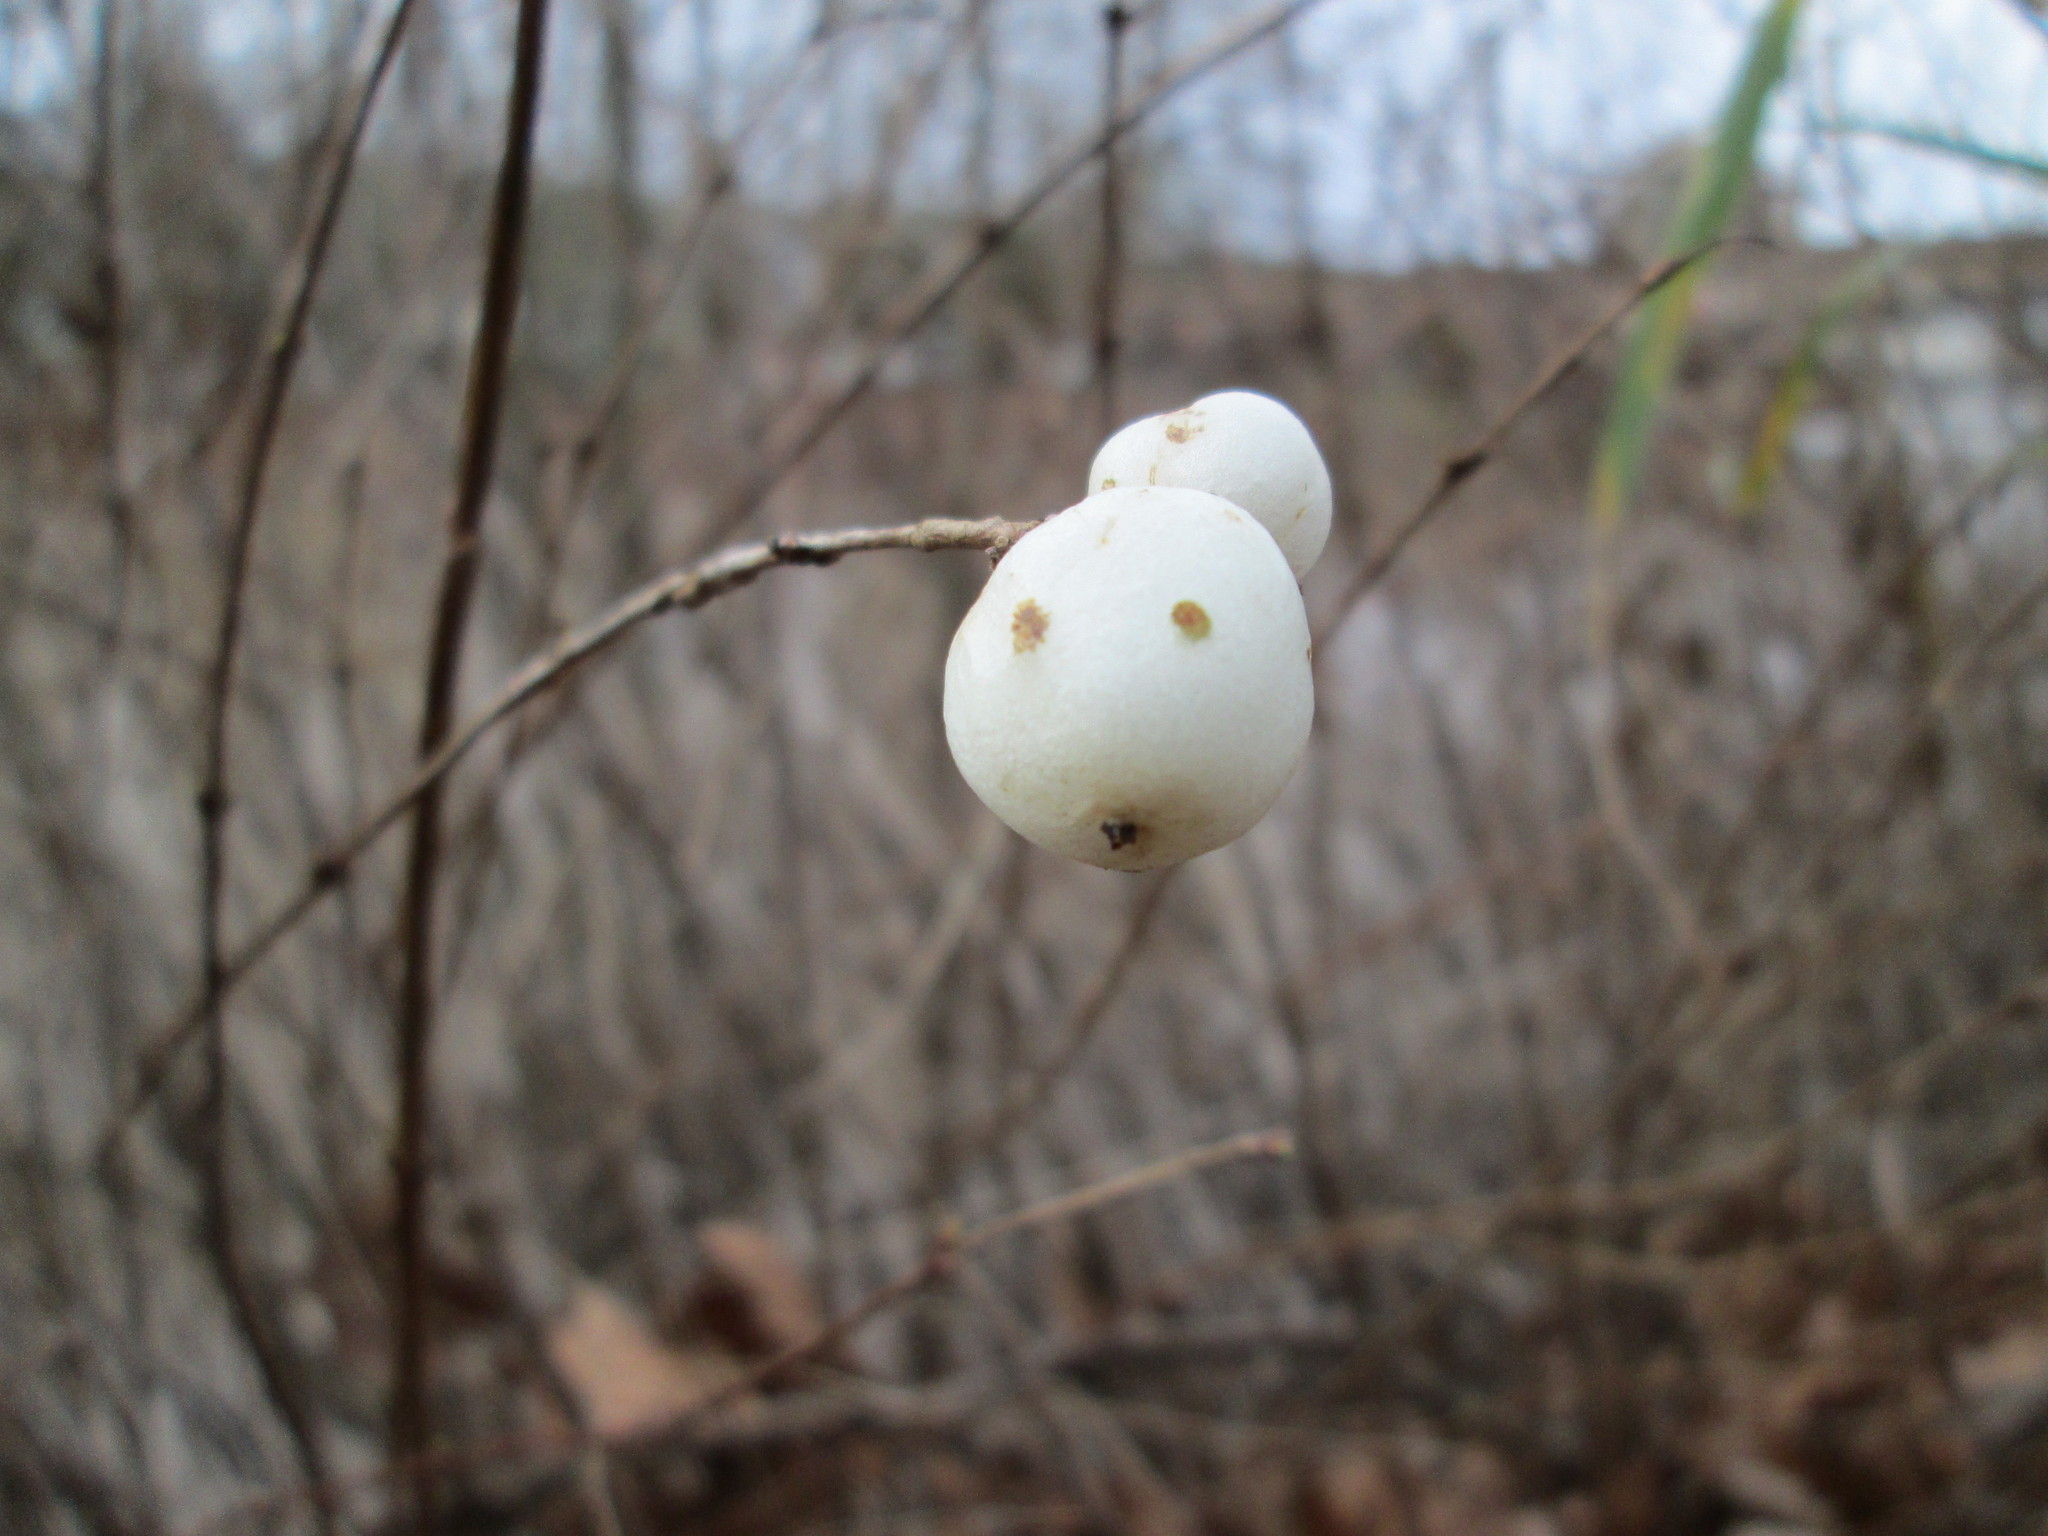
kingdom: Plantae
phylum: Tracheophyta
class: Magnoliopsida
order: Dipsacales
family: Caprifoliaceae
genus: Symphoricarpos
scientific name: Symphoricarpos albus
